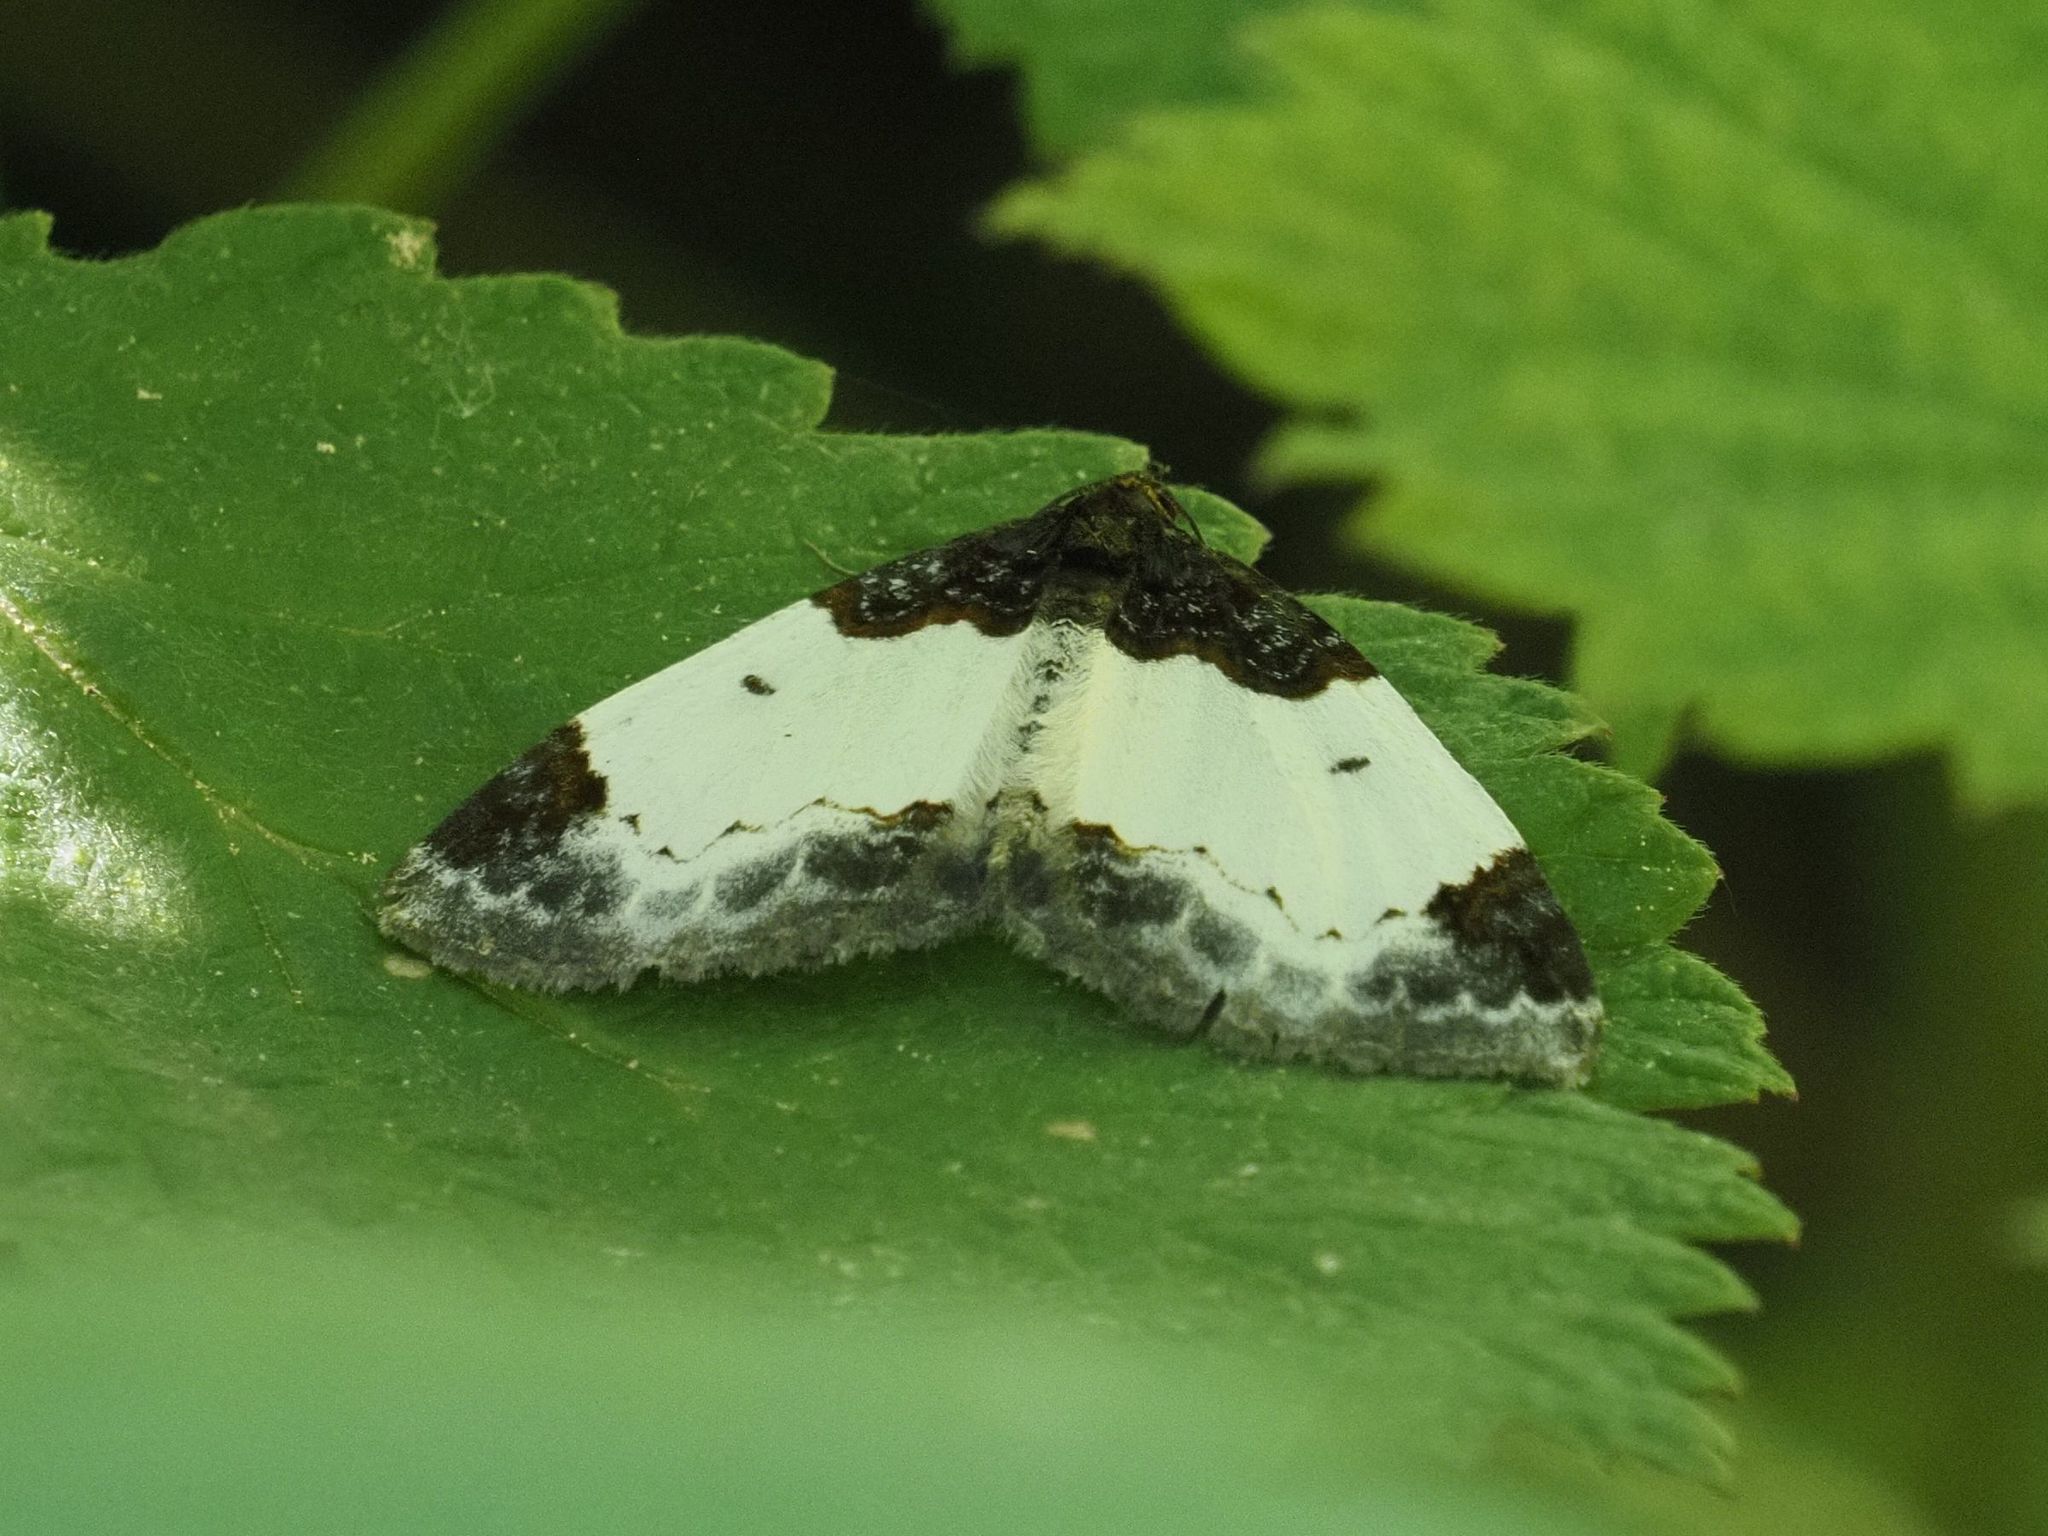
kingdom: Animalia
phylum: Arthropoda
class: Insecta
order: Lepidoptera
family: Geometridae
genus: Mesoleuca
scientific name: Mesoleuca albicillata
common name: Beautiful carpet
